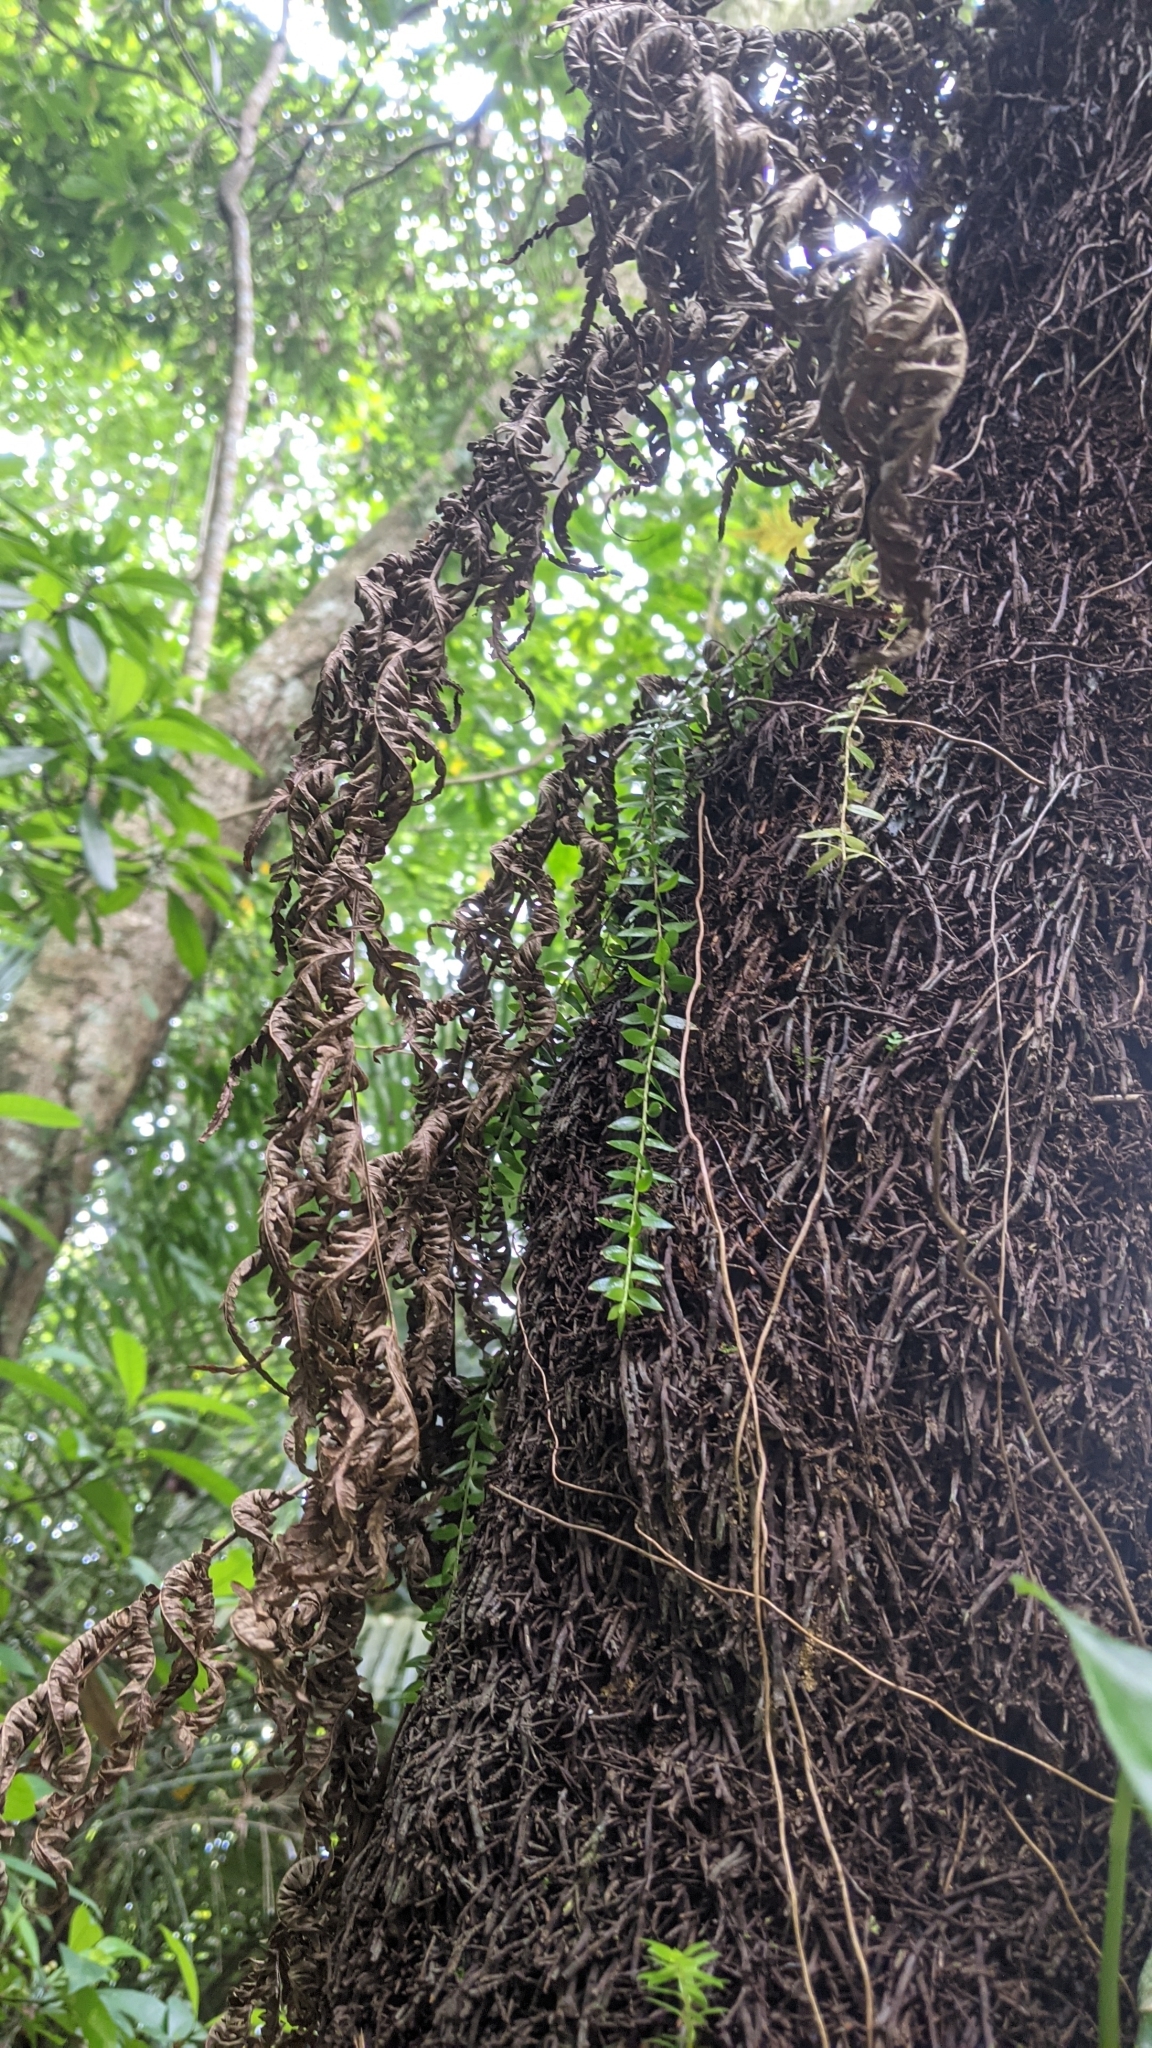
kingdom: Plantae
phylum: Tracheophyta
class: Lycopodiopsida
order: Lycopodiales
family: Lycopodiaceae
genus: Phlegmariurus
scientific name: Phlegmariurus salvinioides
